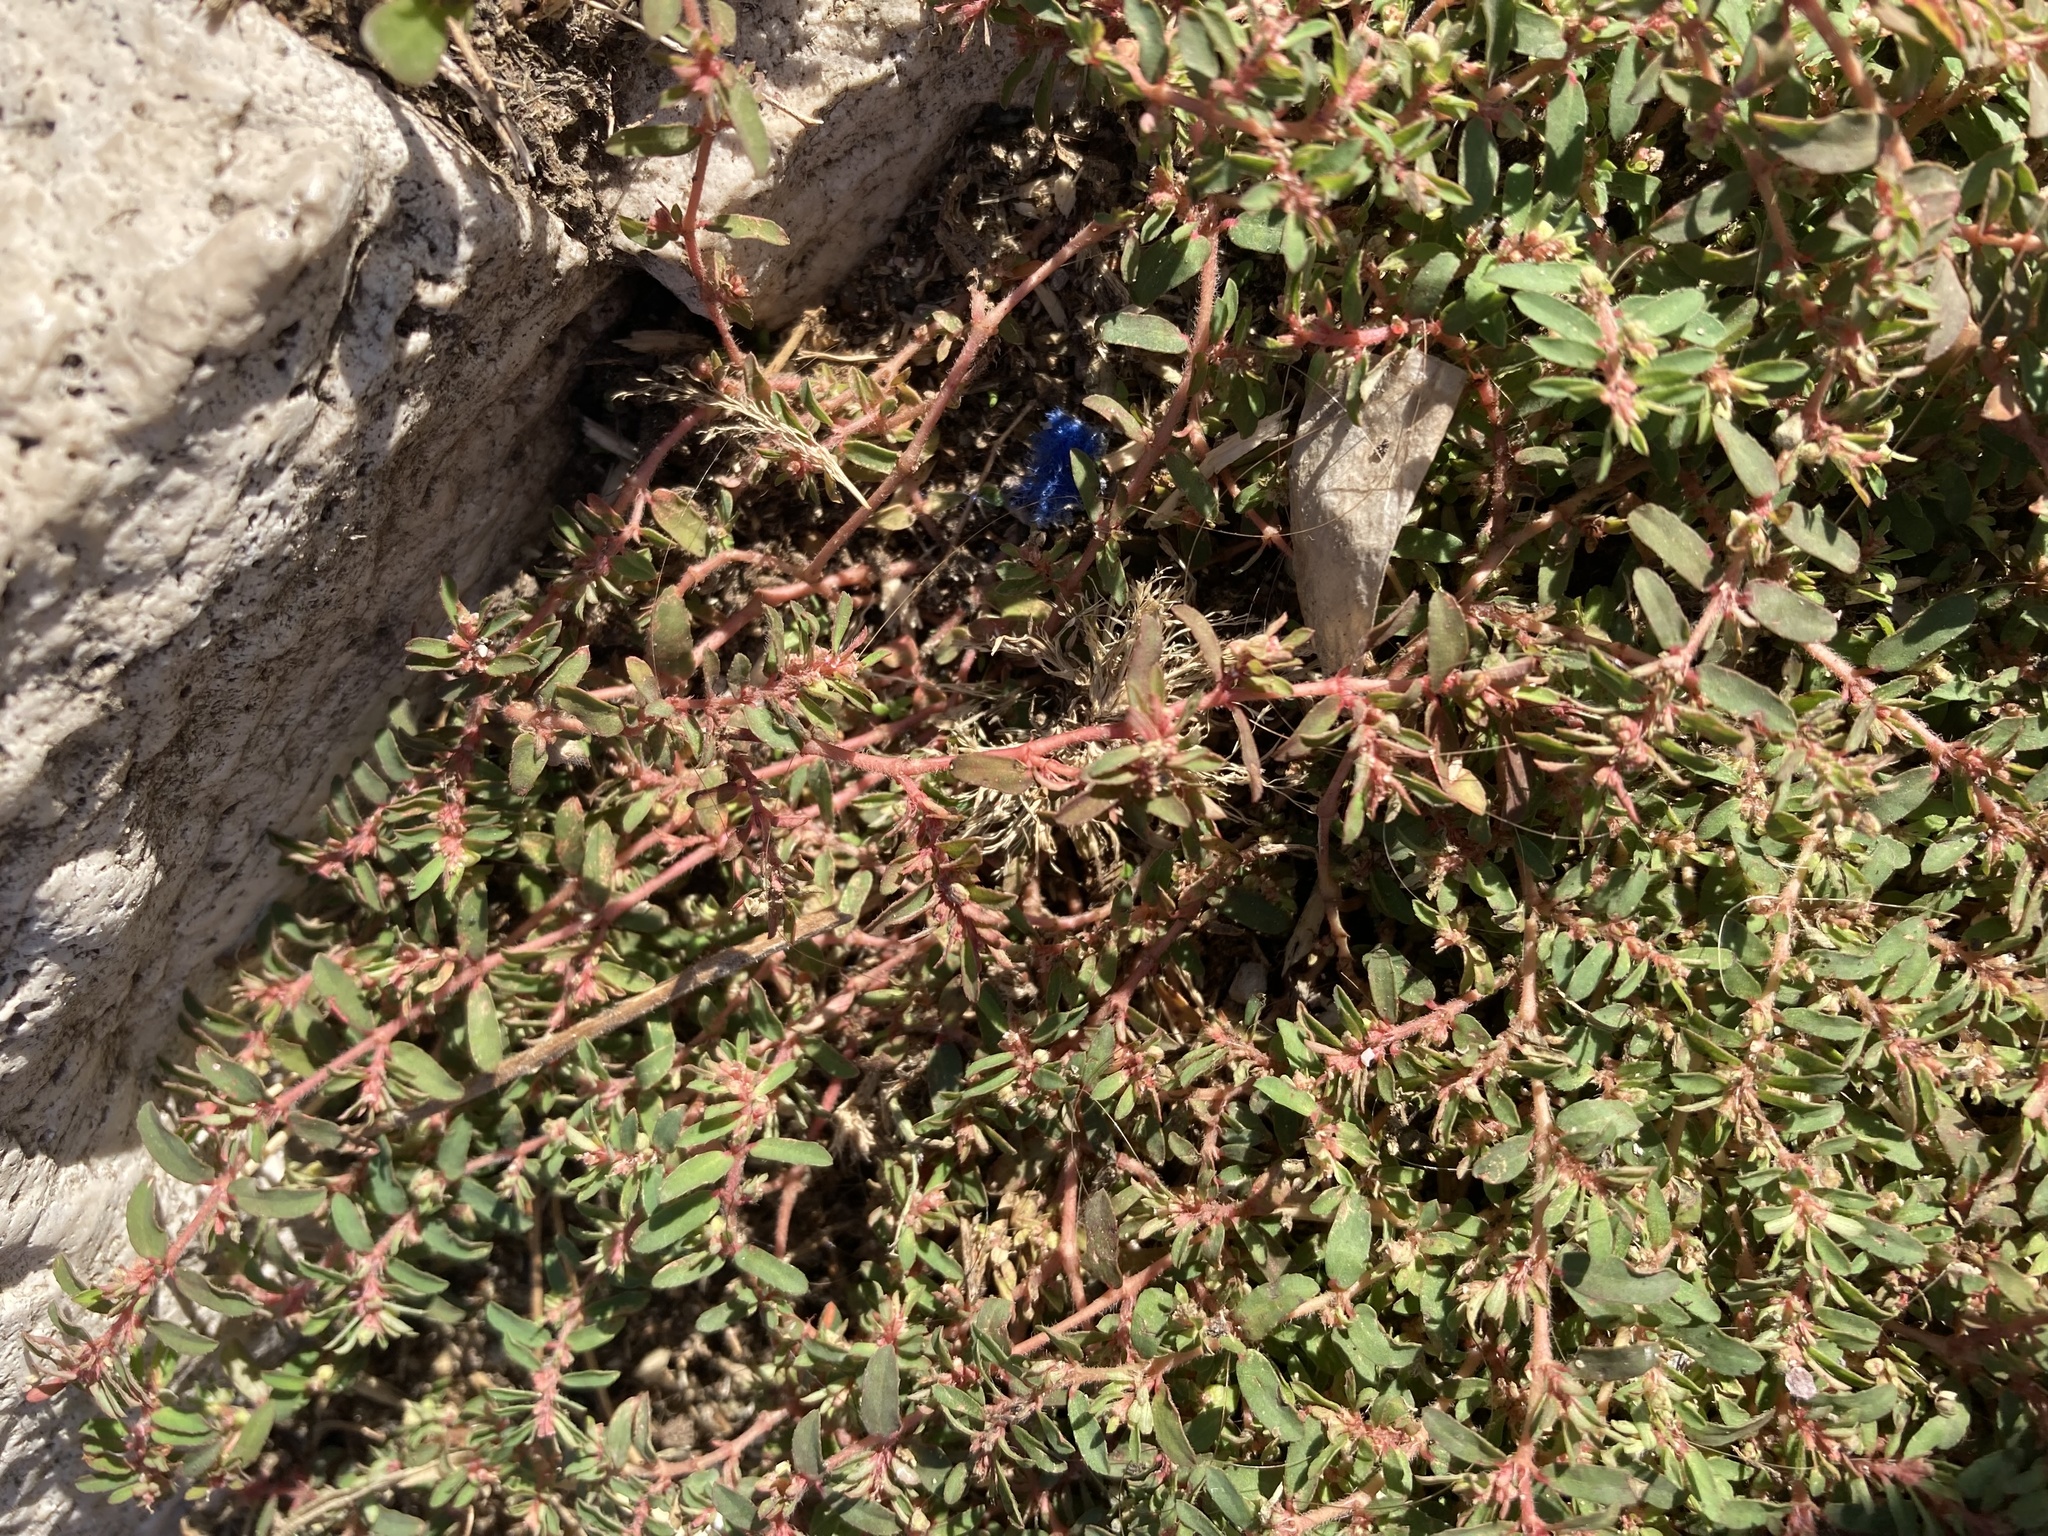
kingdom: Plantae
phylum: Tracheophyta
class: Magnoliopsida
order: Malpighiales
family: Euphorbiaceae
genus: Euphorbia
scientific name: Euphorbia maculata
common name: Spotted spurge
